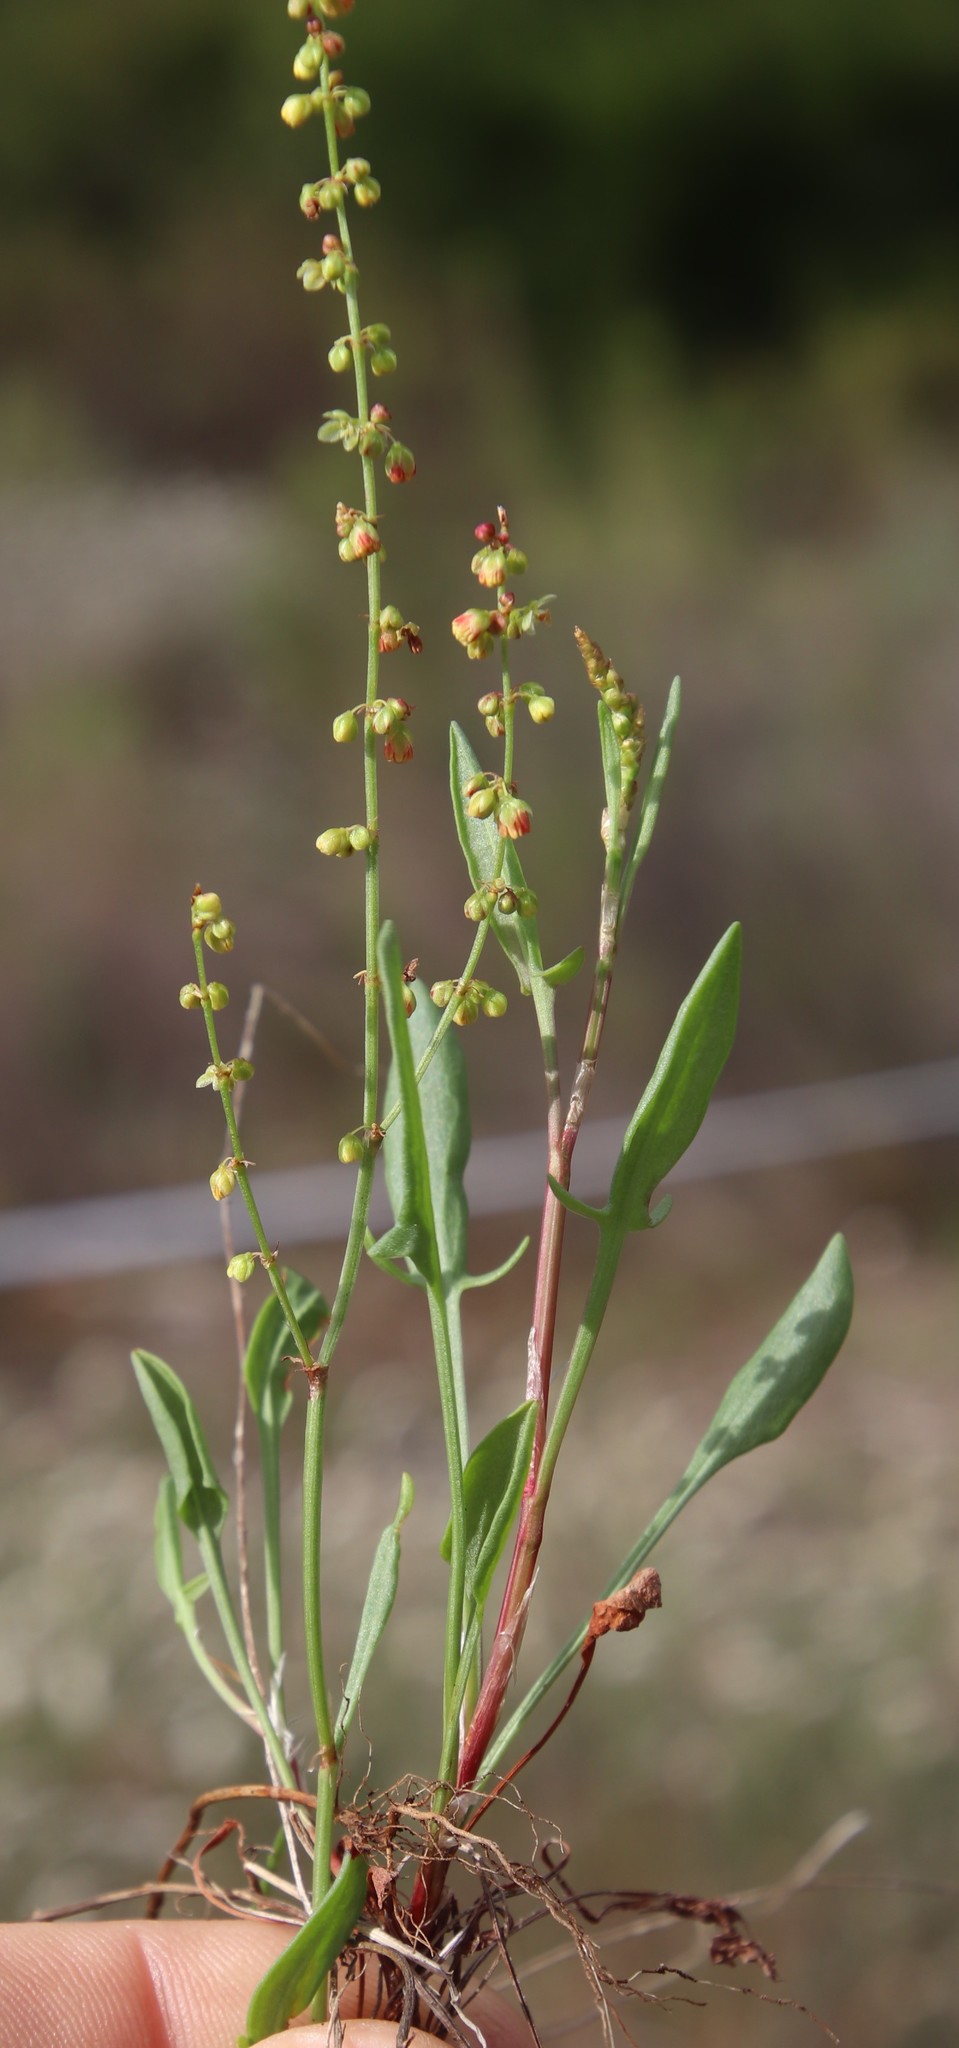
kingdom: Plantae
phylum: Tracheophyta
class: Magnoliopsida
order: Caryophyllales
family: Polygonaceae
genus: Rumex
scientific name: Rumex acetosella
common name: Common sheep sorrel
